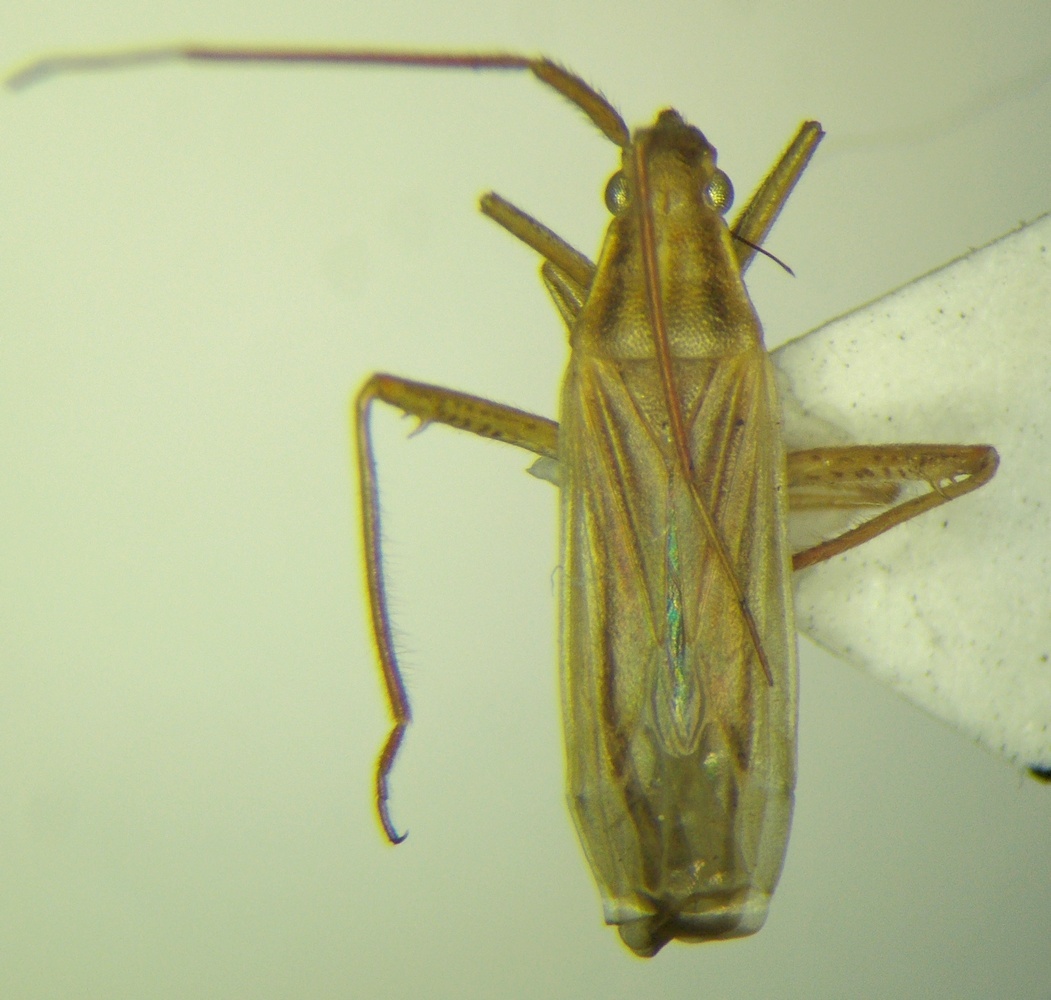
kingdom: Animalia
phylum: Arthropoda
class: Insecta
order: Hemiptera
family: Miridae
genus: Stenodema
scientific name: Stenodema calcarata
